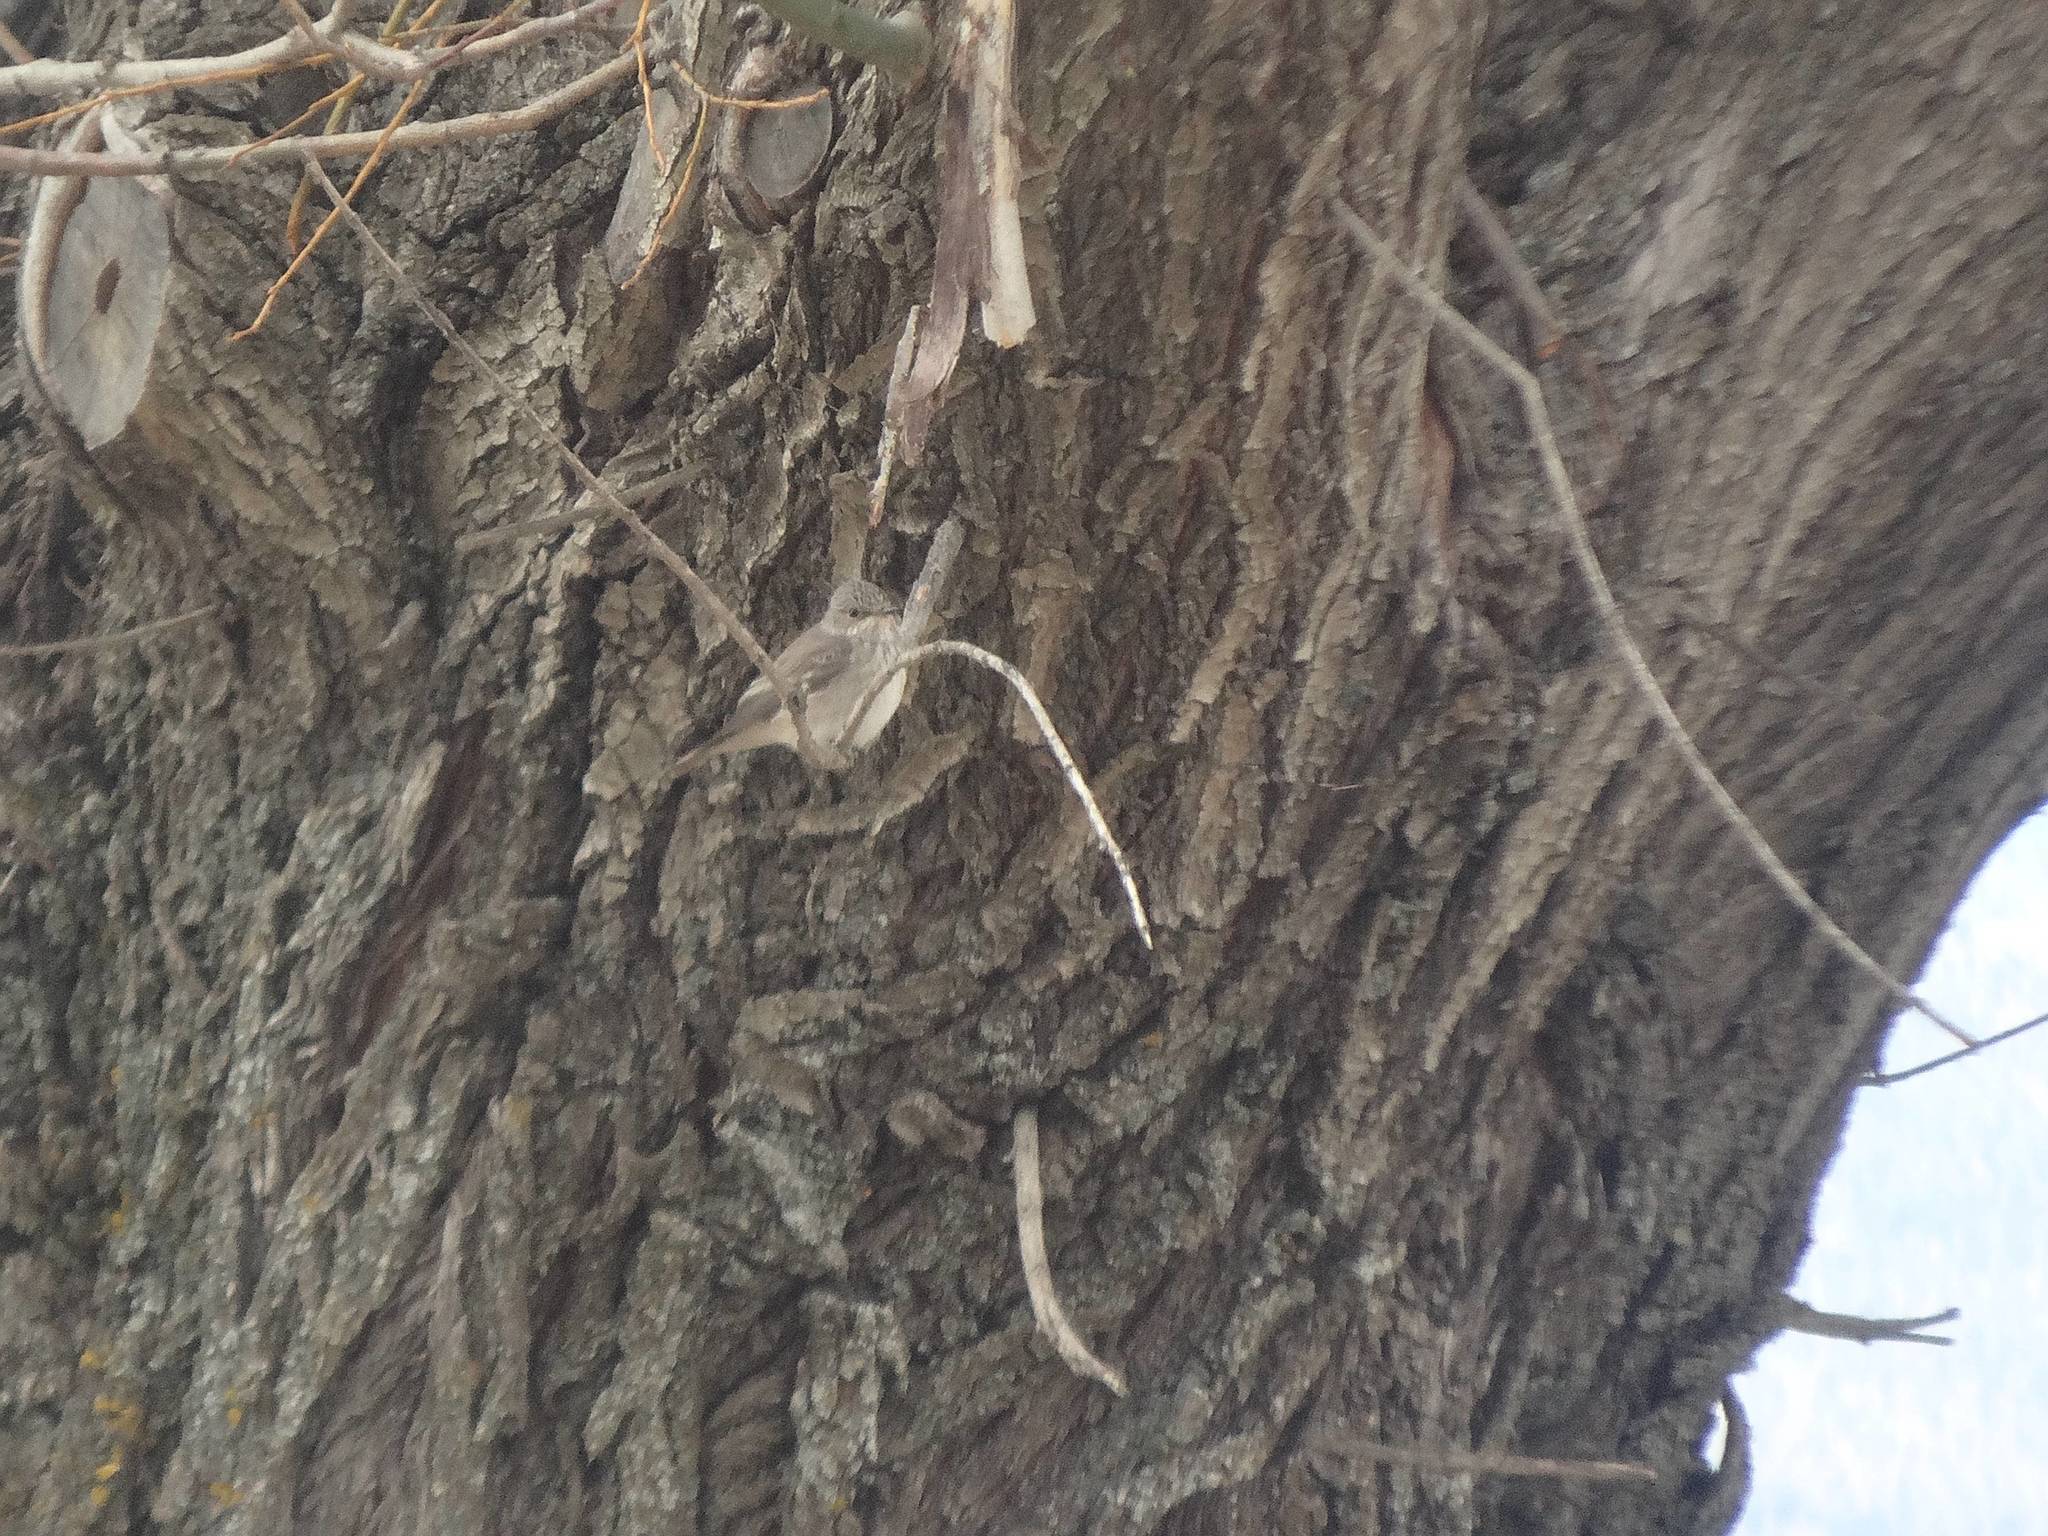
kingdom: Animalia
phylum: Chordata
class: Aves
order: Passeriformes
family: Muscicapidae
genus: Muscicapa
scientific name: Muscicapa striata
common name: Spotted flycatcher
